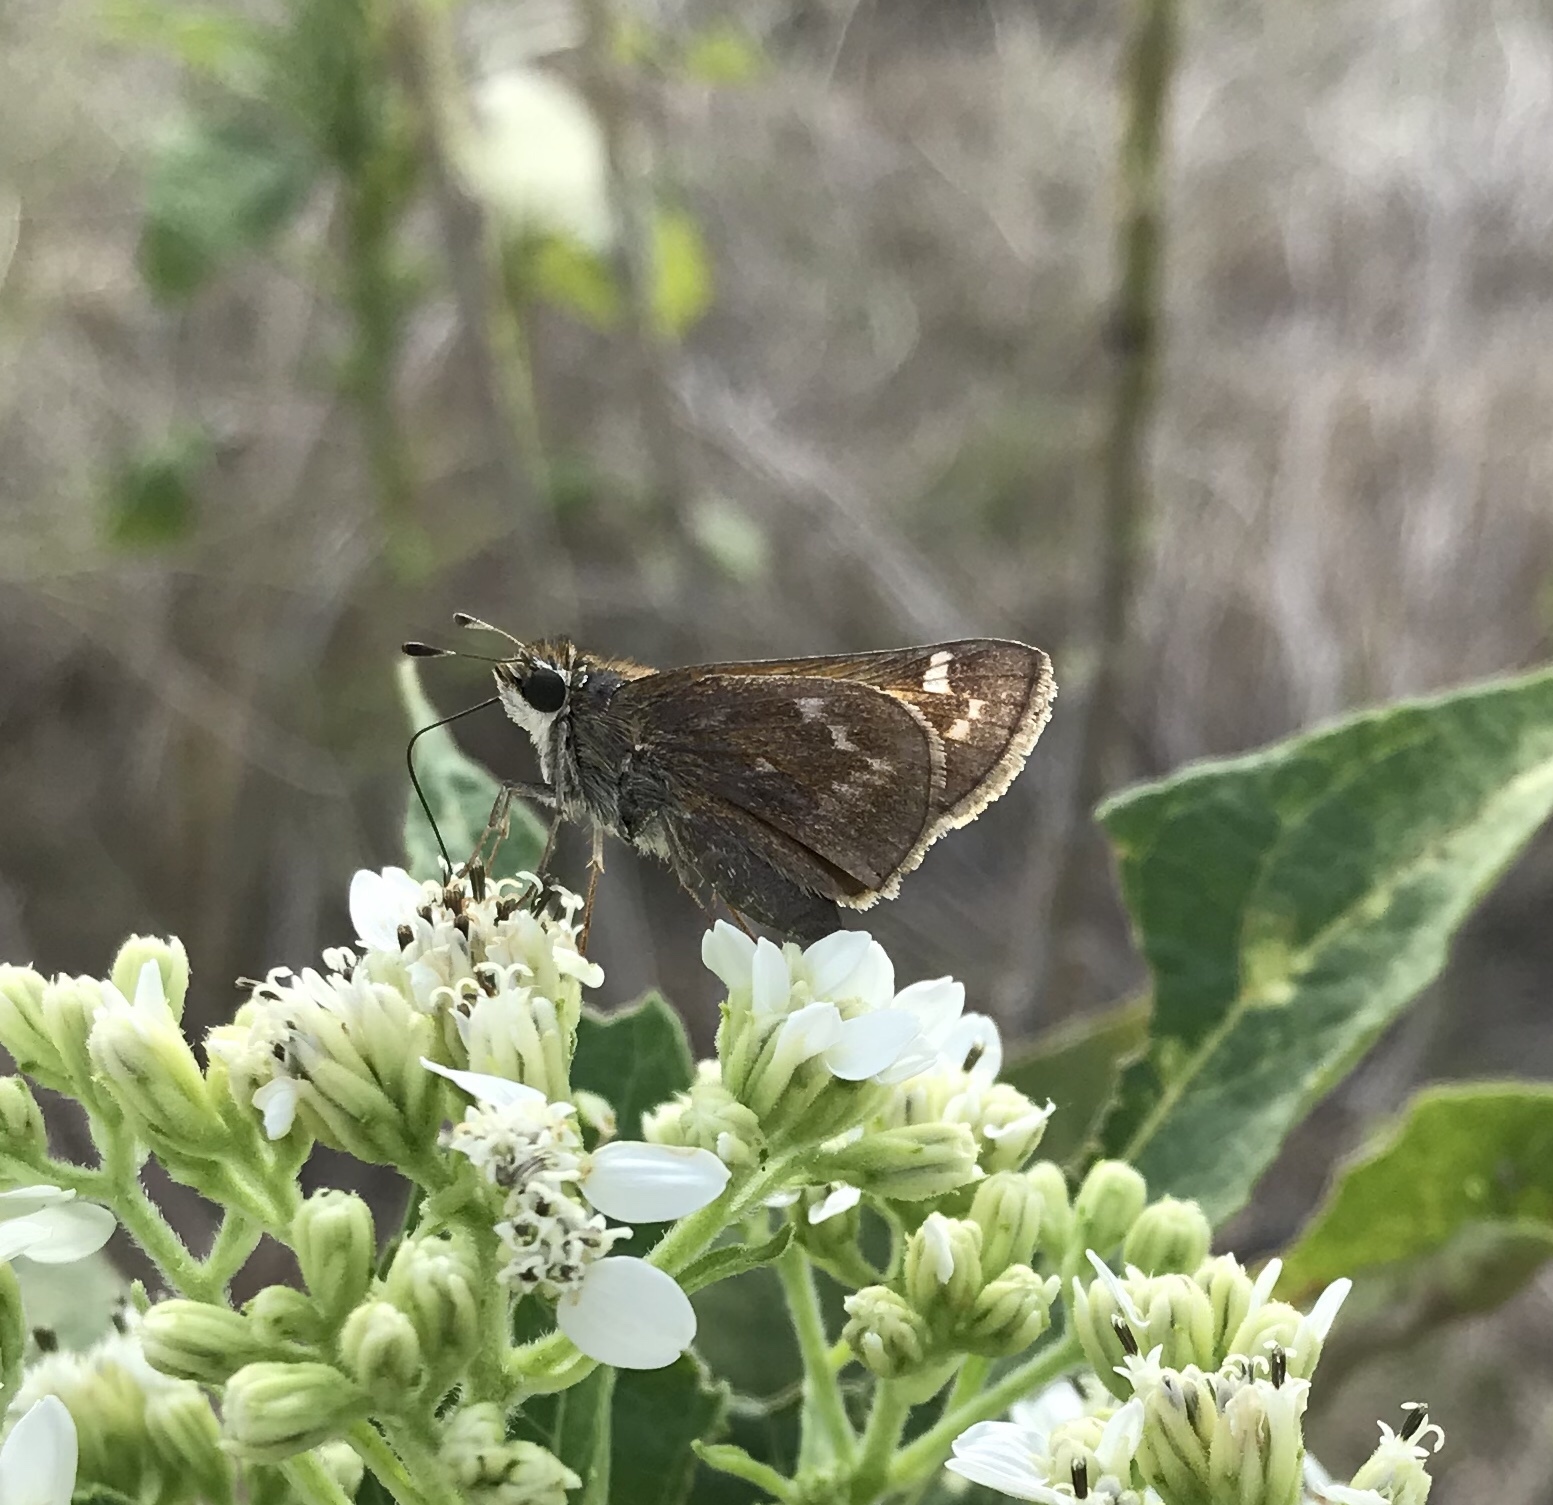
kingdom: Animalia
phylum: Arthropoda
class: Insecta
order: Lepidoptera
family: Hesperiidae
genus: Atalopedes
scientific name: Atalopedes
